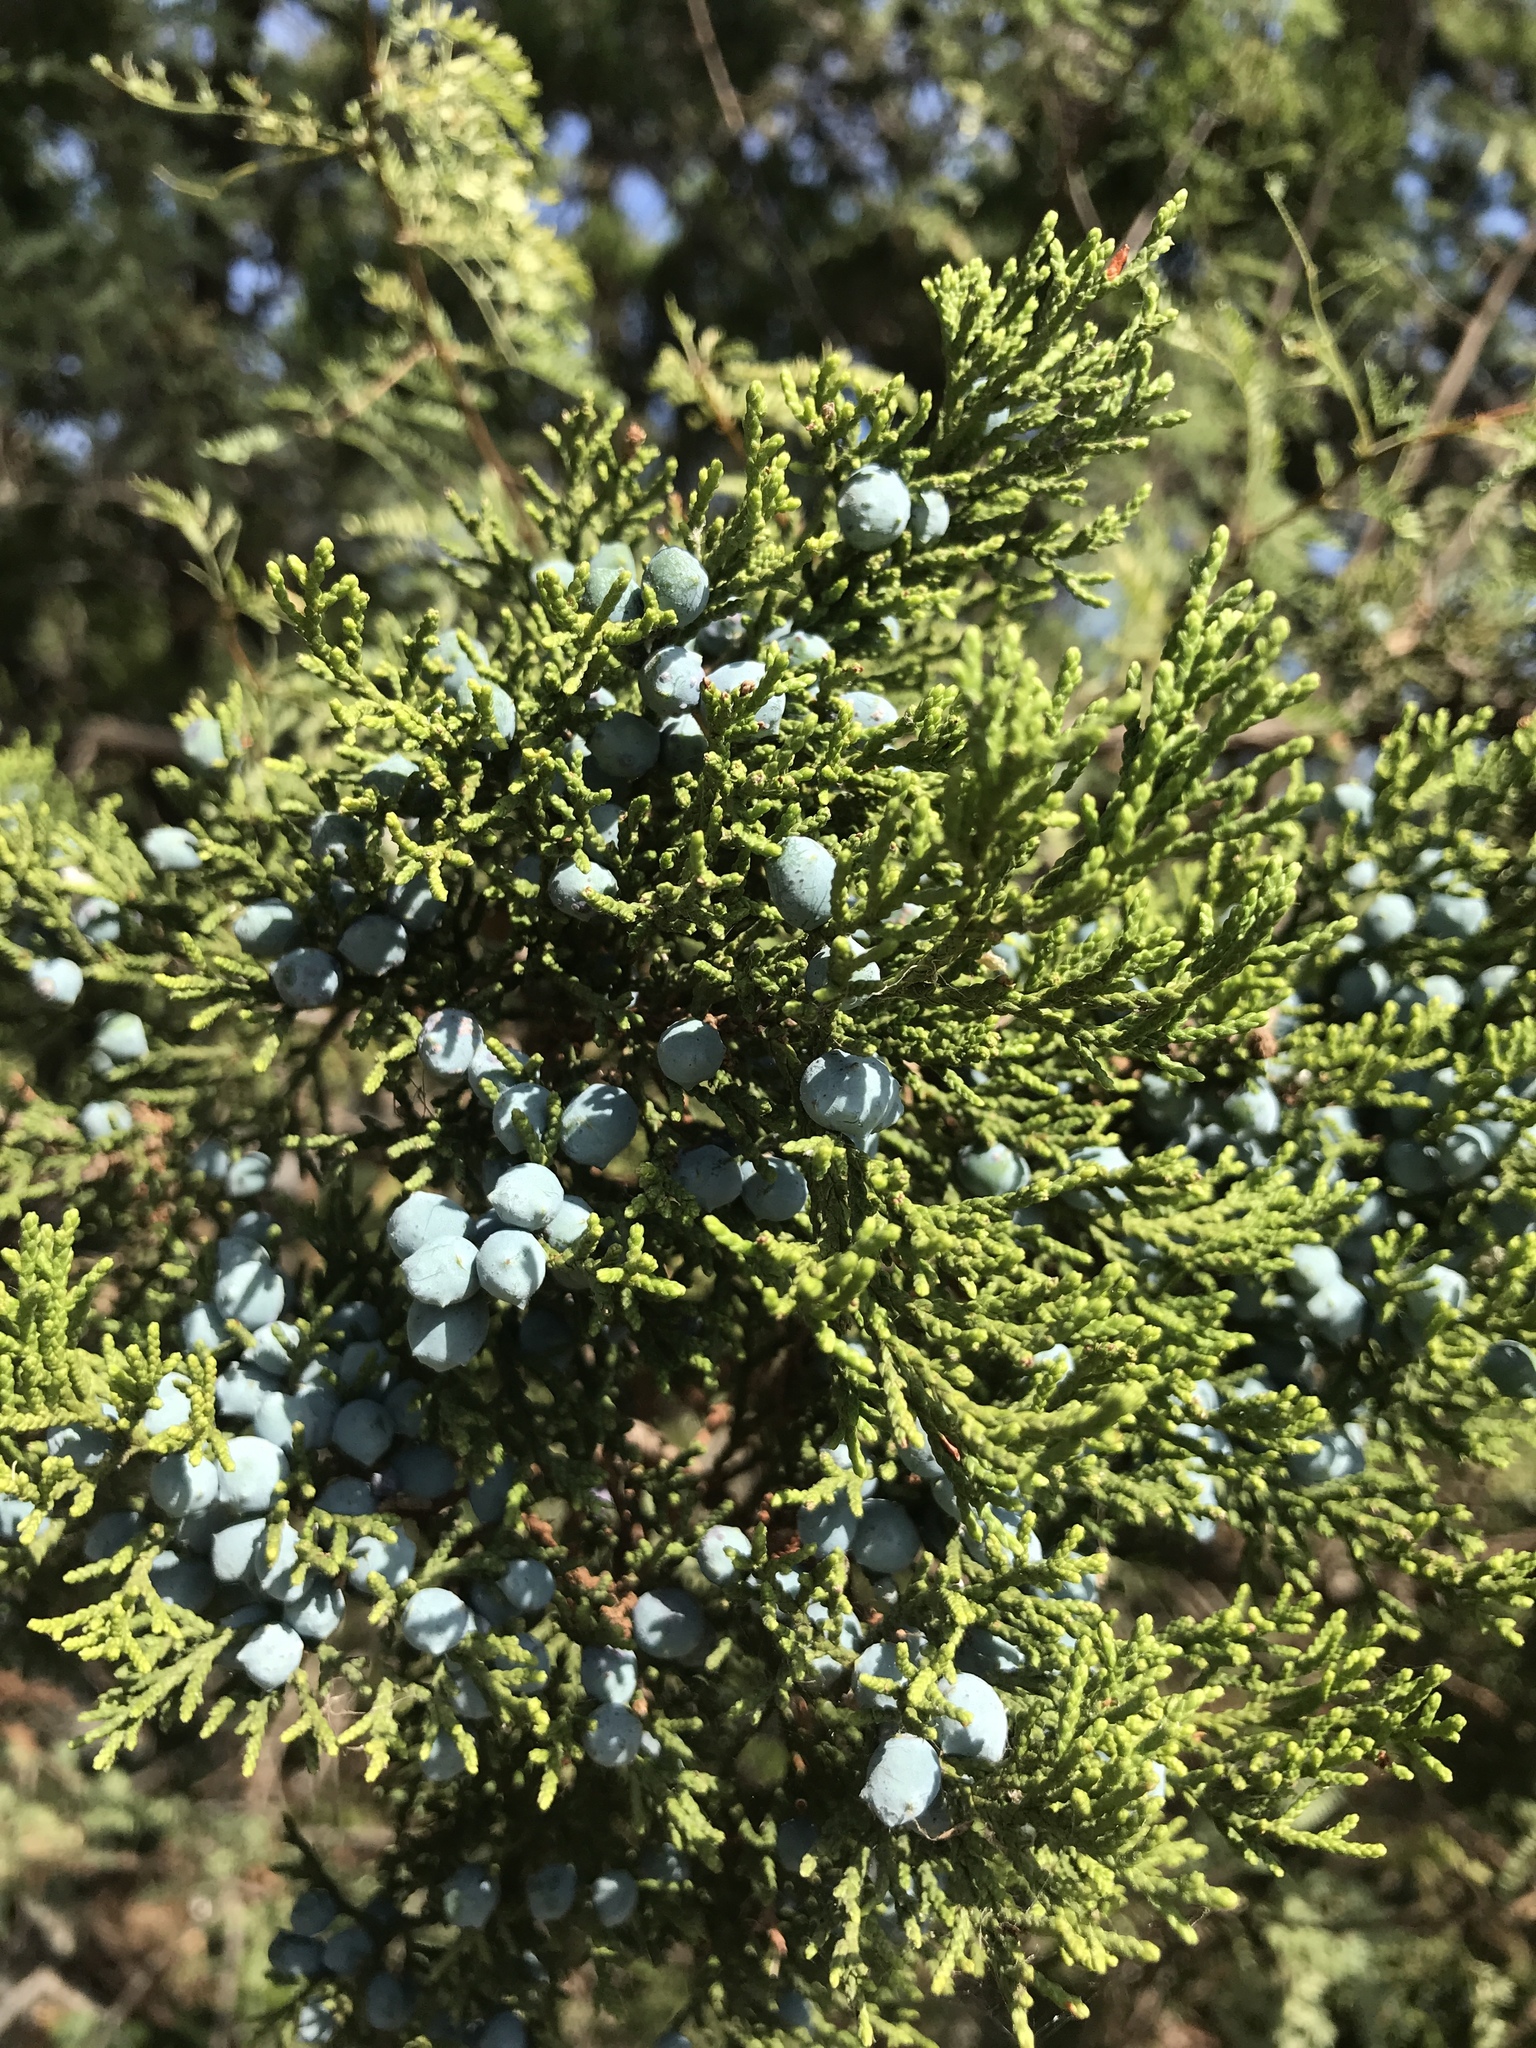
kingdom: Plantae
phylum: Tracheophyta
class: Pinopsida
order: Pinales
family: Cupressaceae
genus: Juniperus
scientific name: Juniperus ashei
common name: Mexican juniper
